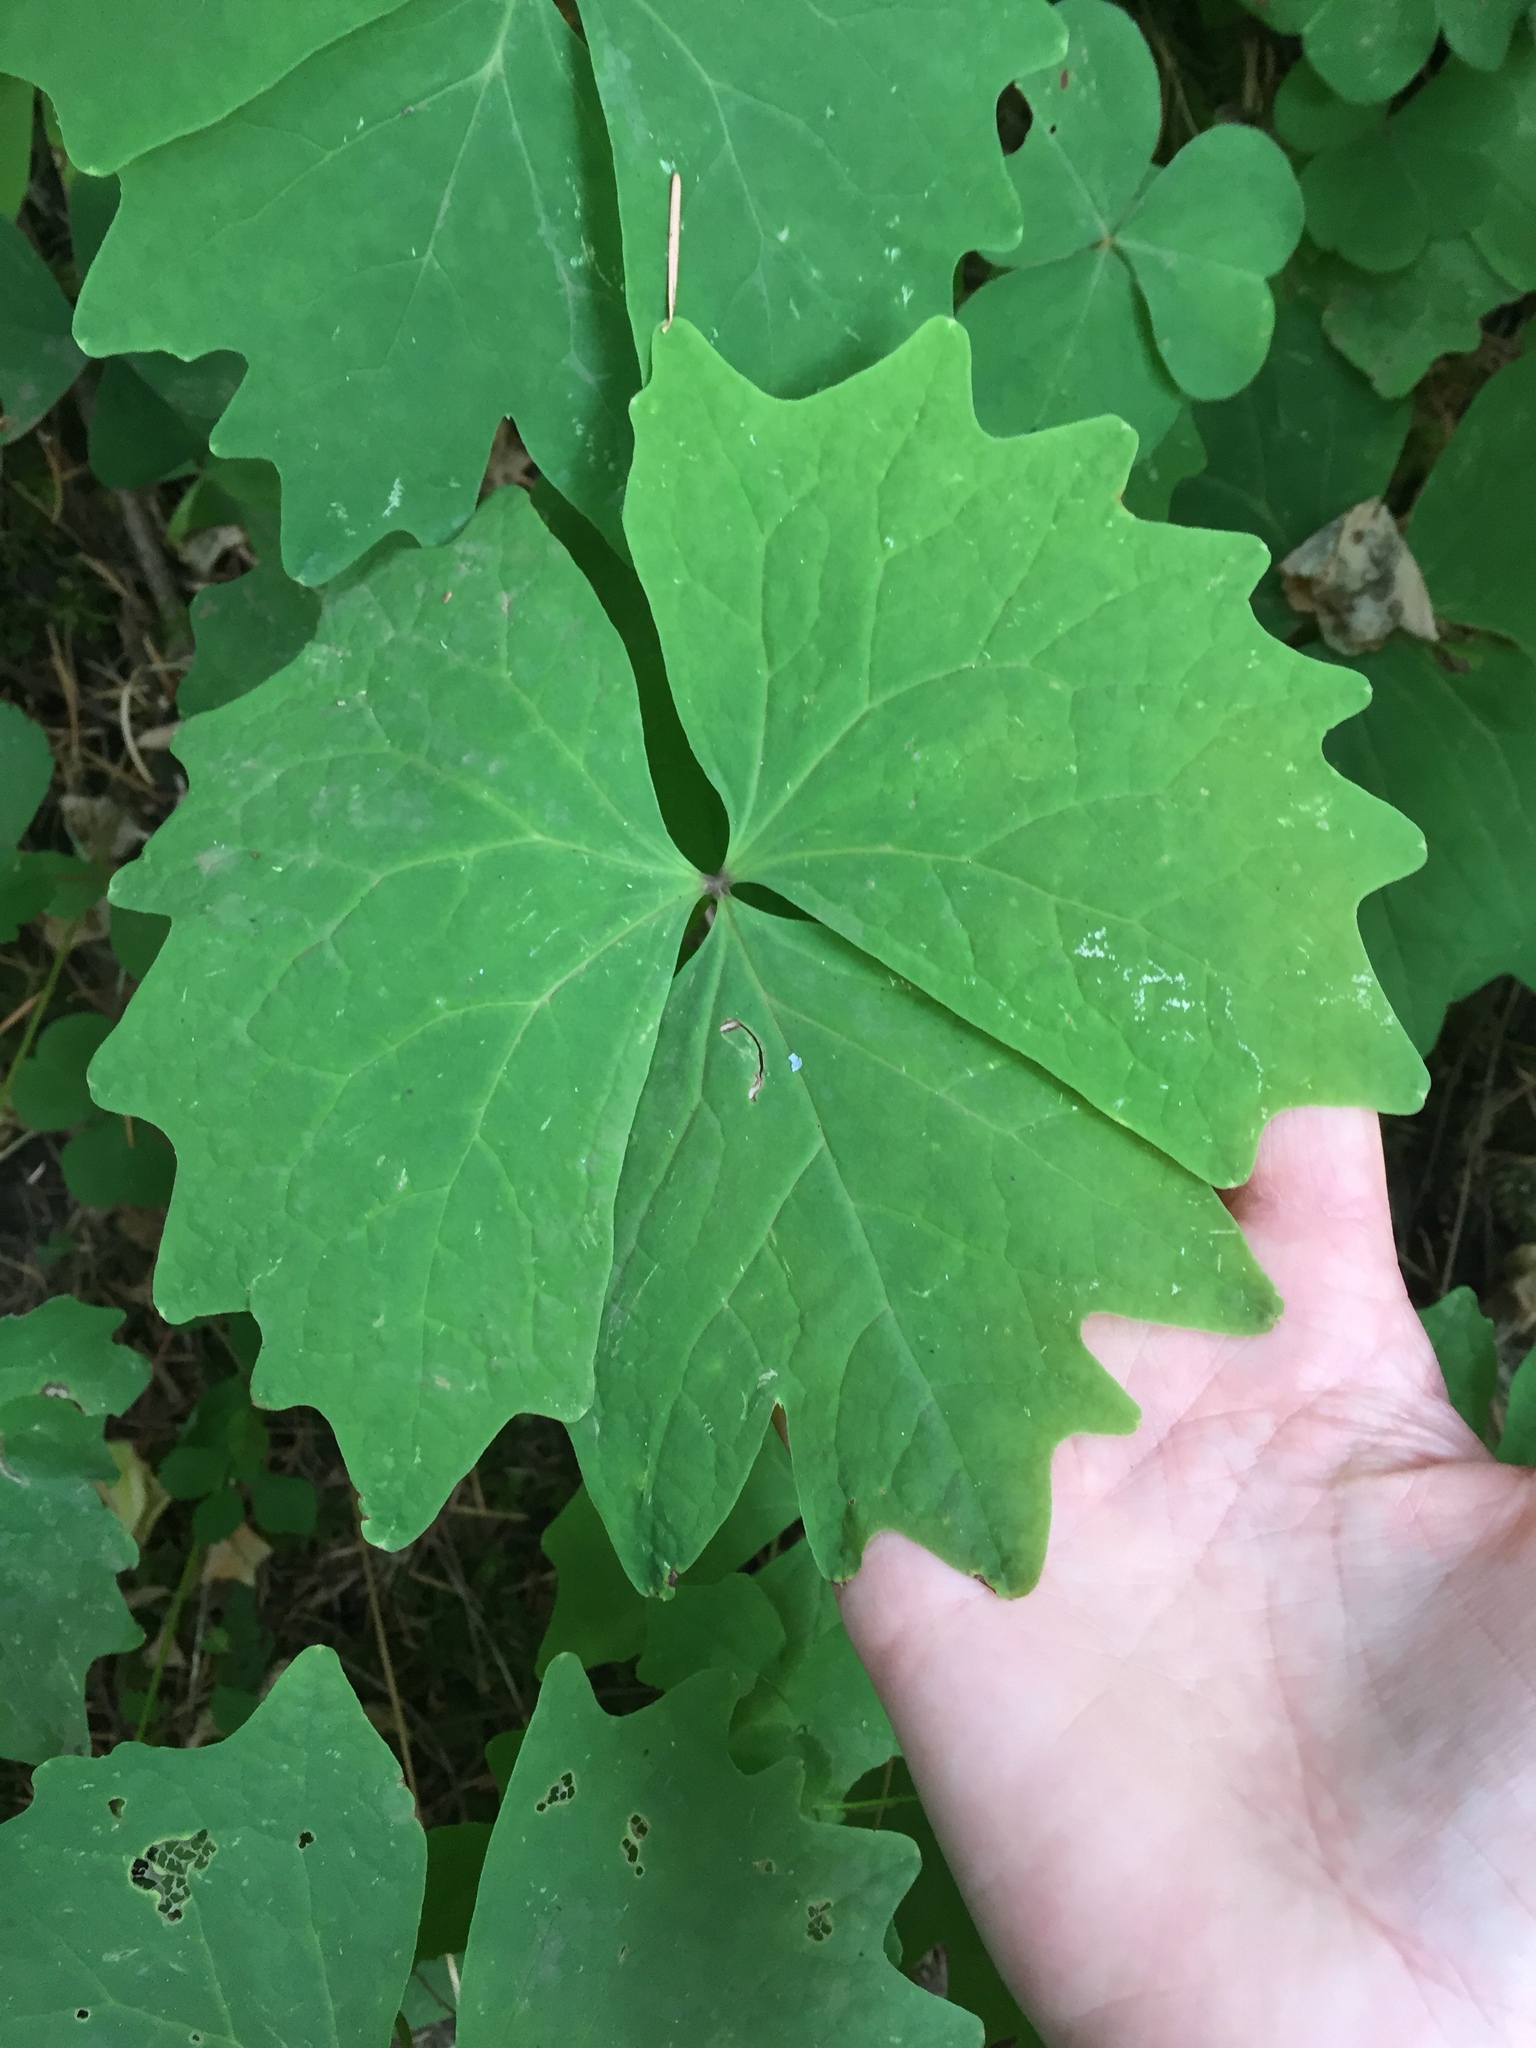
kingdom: Plantae
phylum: Tracheophyta
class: Magnoliopsida
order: Ranunculales
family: Berberidaceae
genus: Achlys
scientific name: Achlys triphylla
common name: Vanilla-leaf
